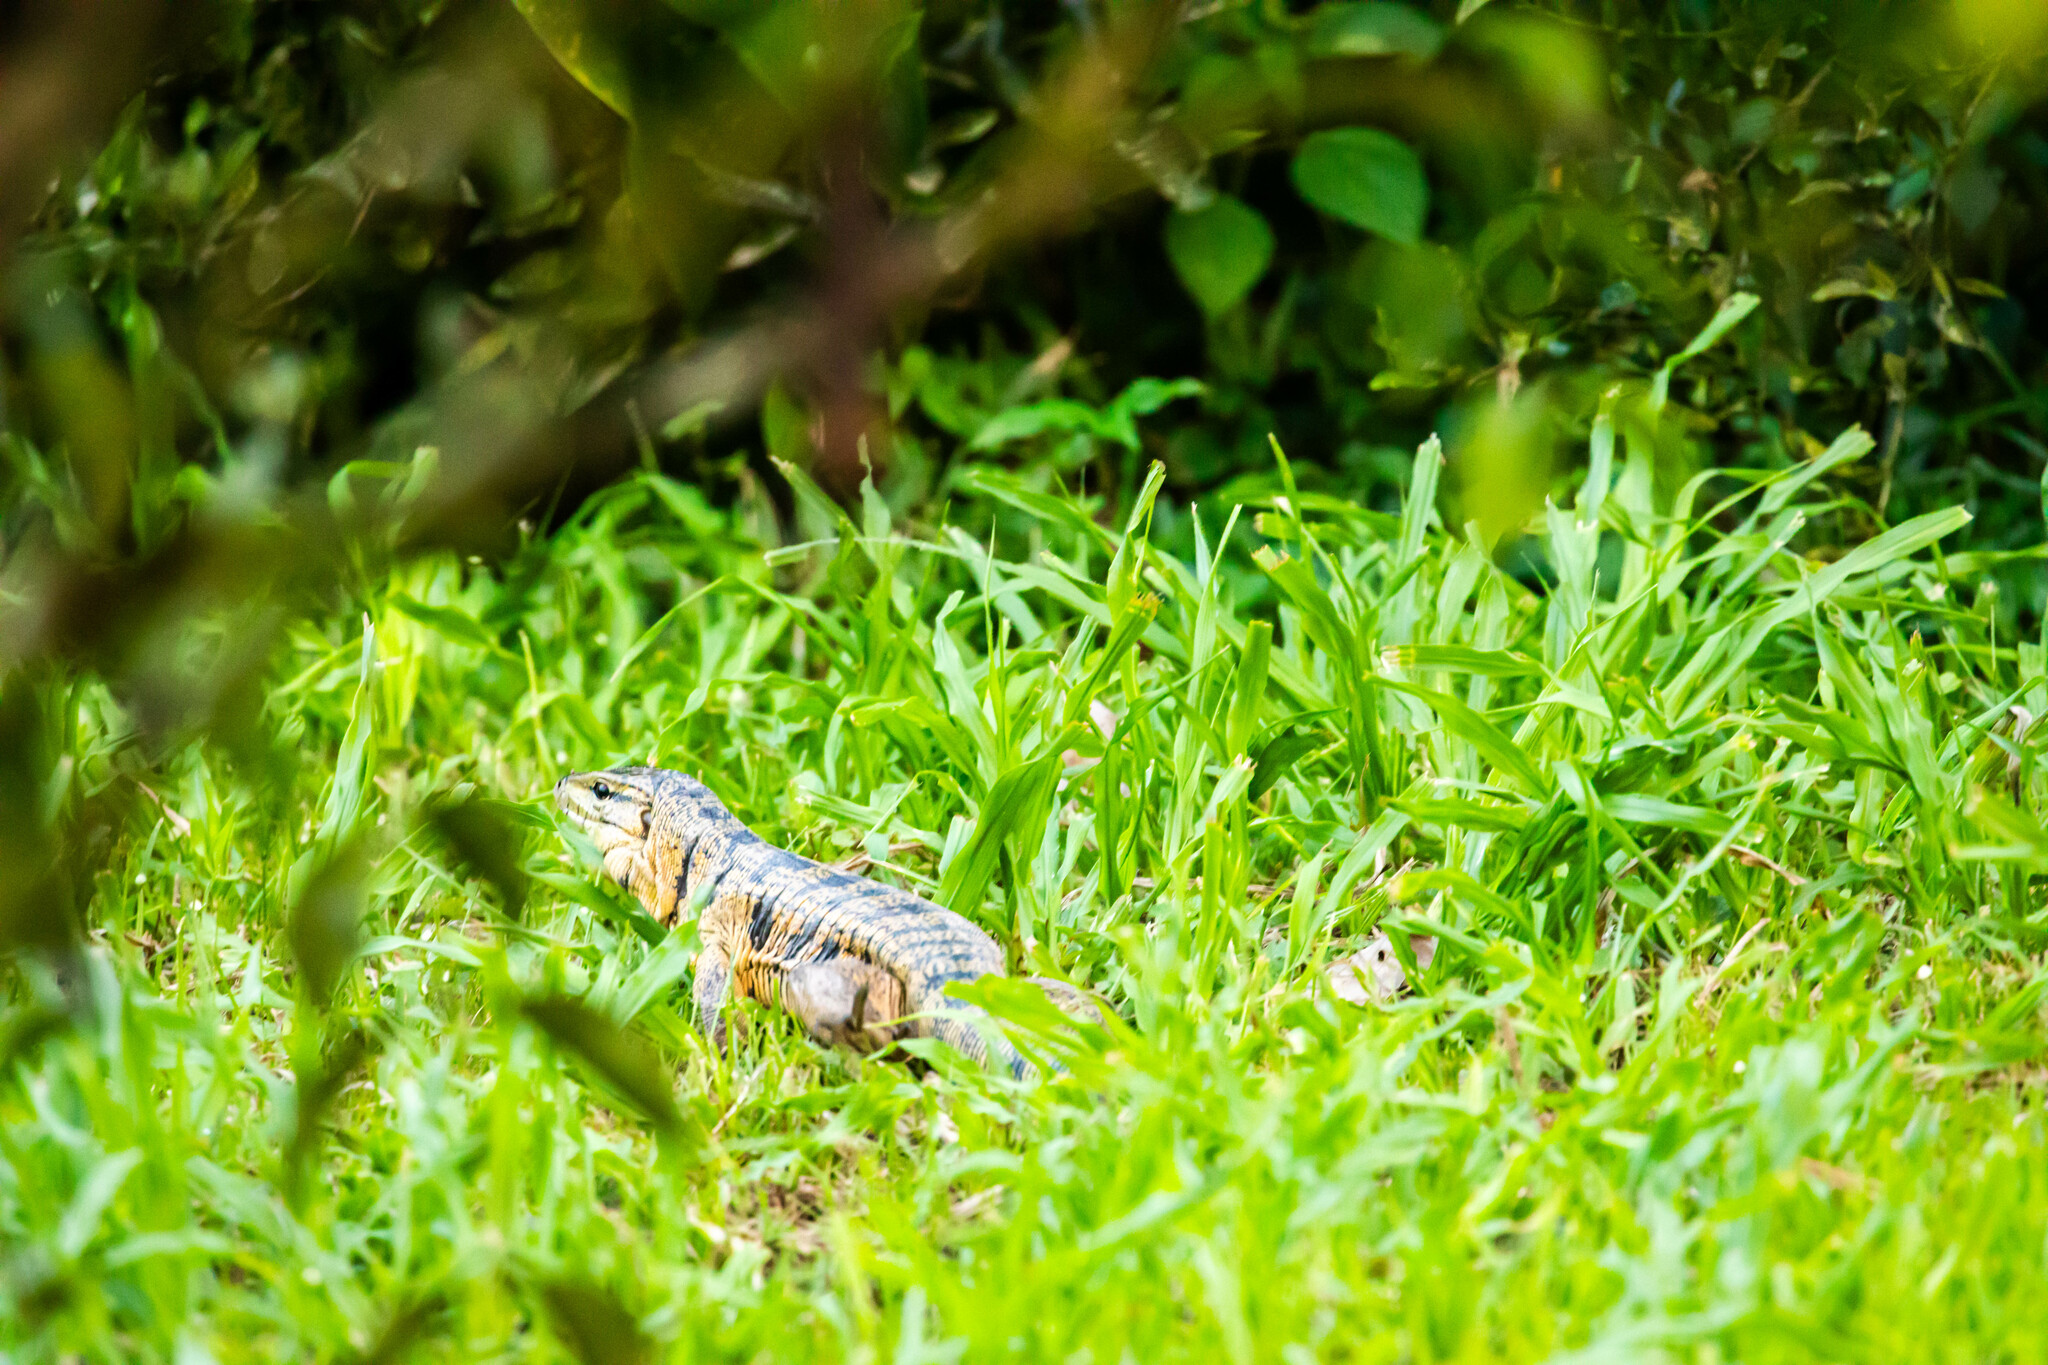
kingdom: Animalia
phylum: Chordata
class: Squamata
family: Teiidae
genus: Tupinambis
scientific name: Tupinambis cryptus
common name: Cryptic golden tegu
